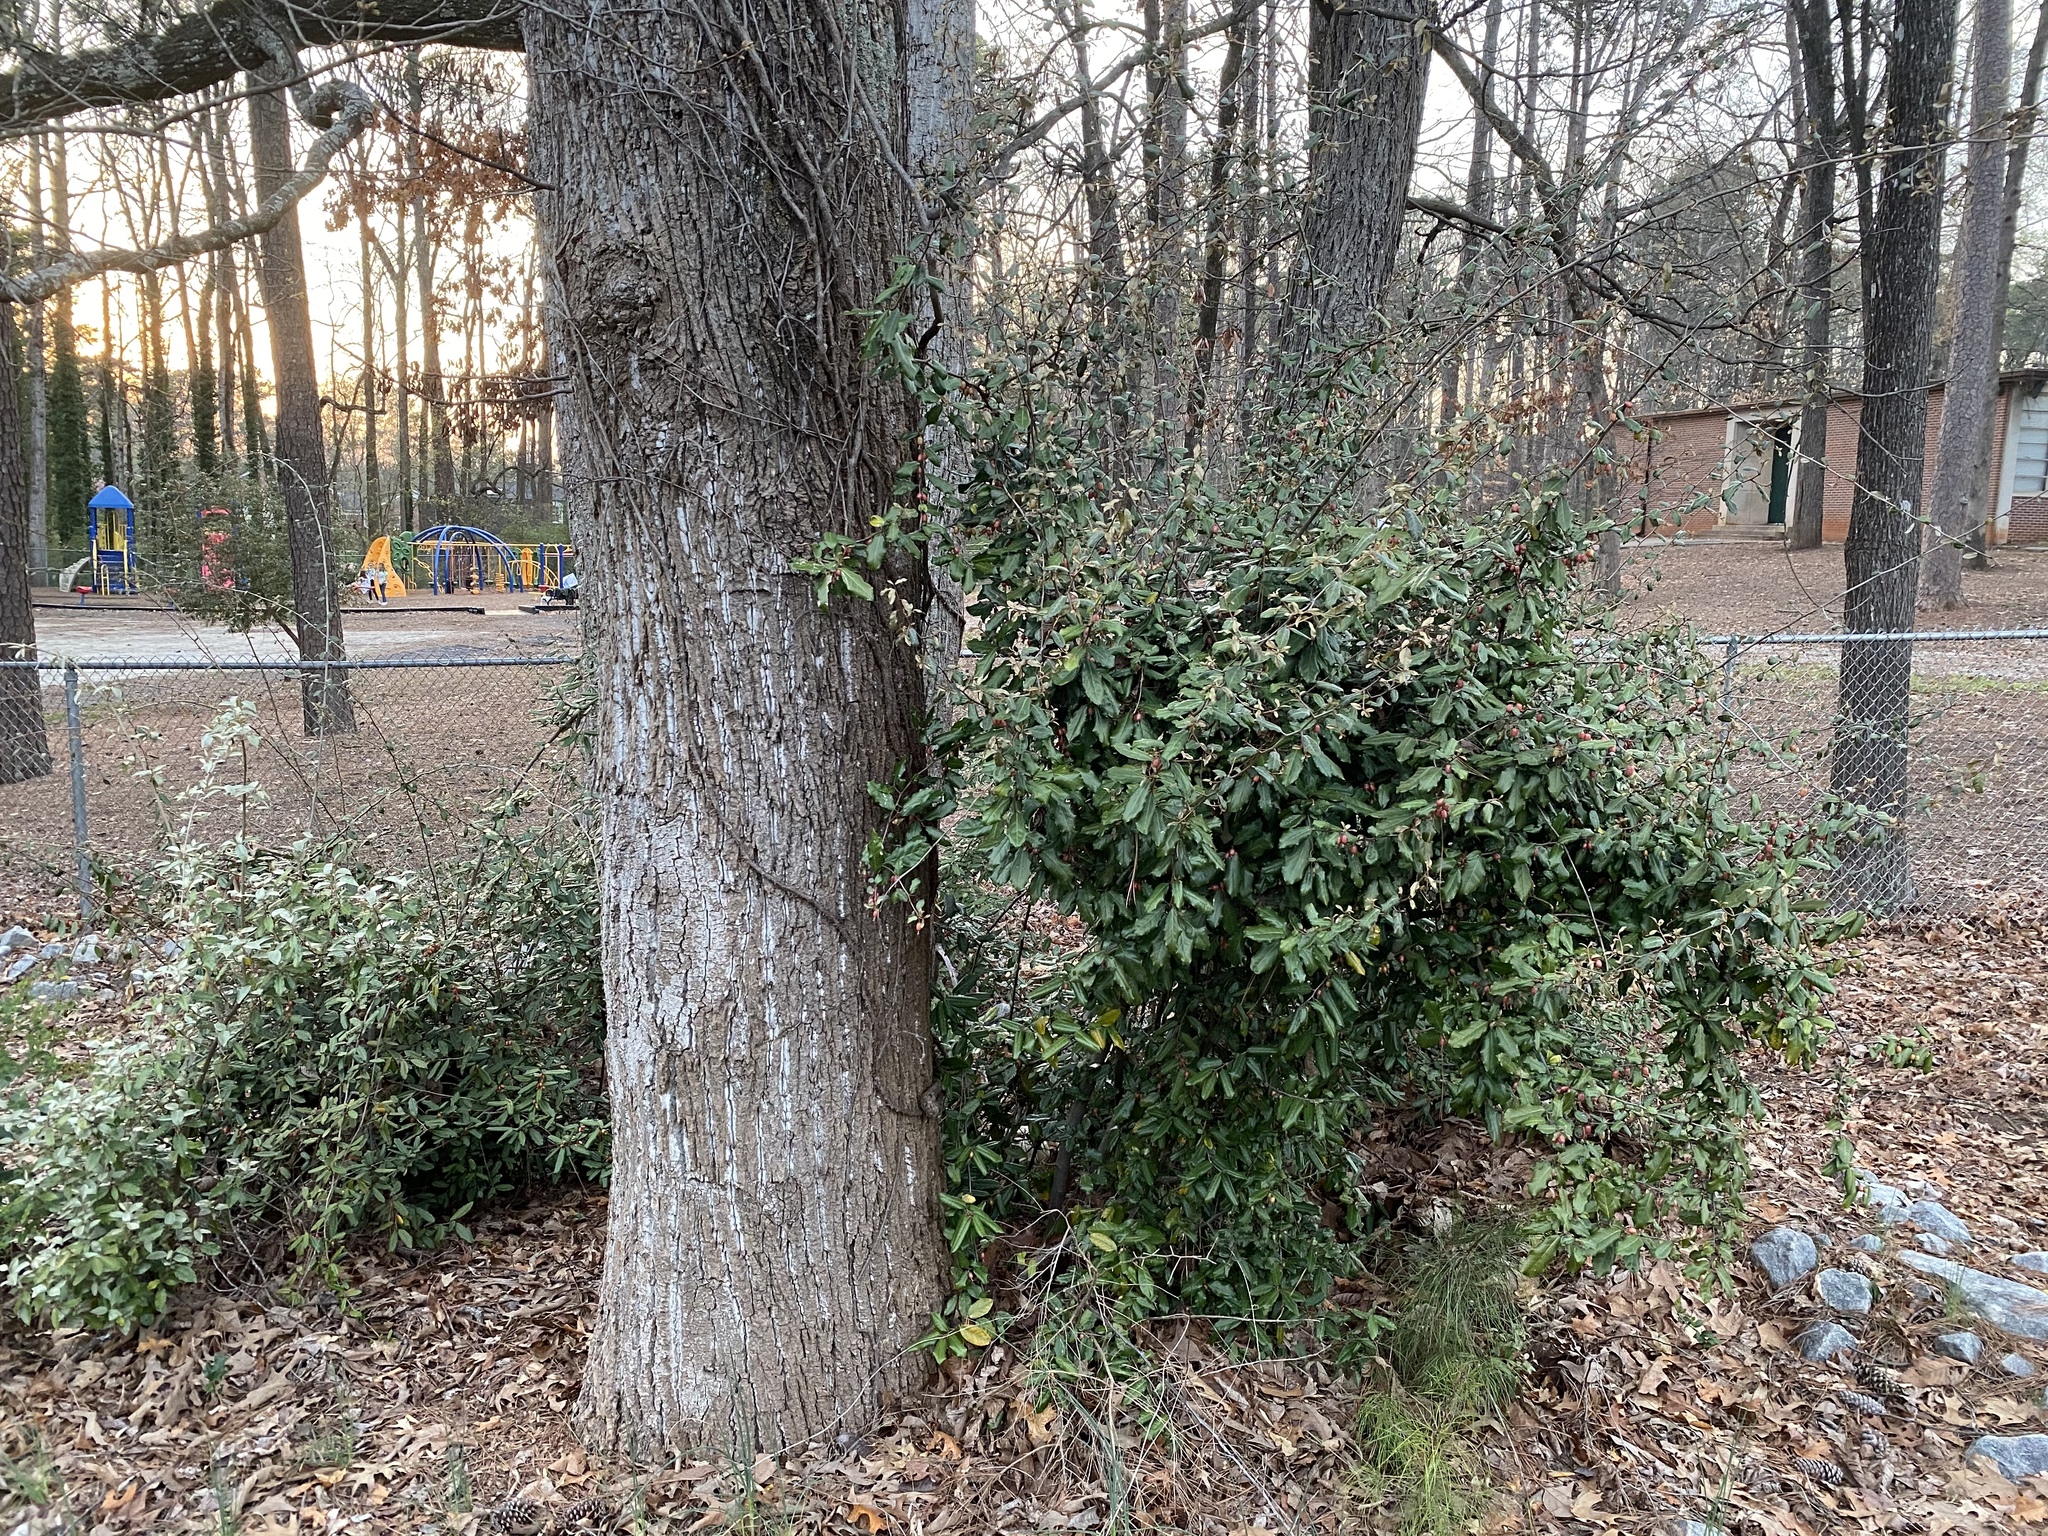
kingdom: Plantae
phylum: Tracheophyta
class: Magnoliopsida
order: Rosales
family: Elaeagnaceae
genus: Elaeagnus
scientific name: Elaeagnus pungens
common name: Spiny oleaster
